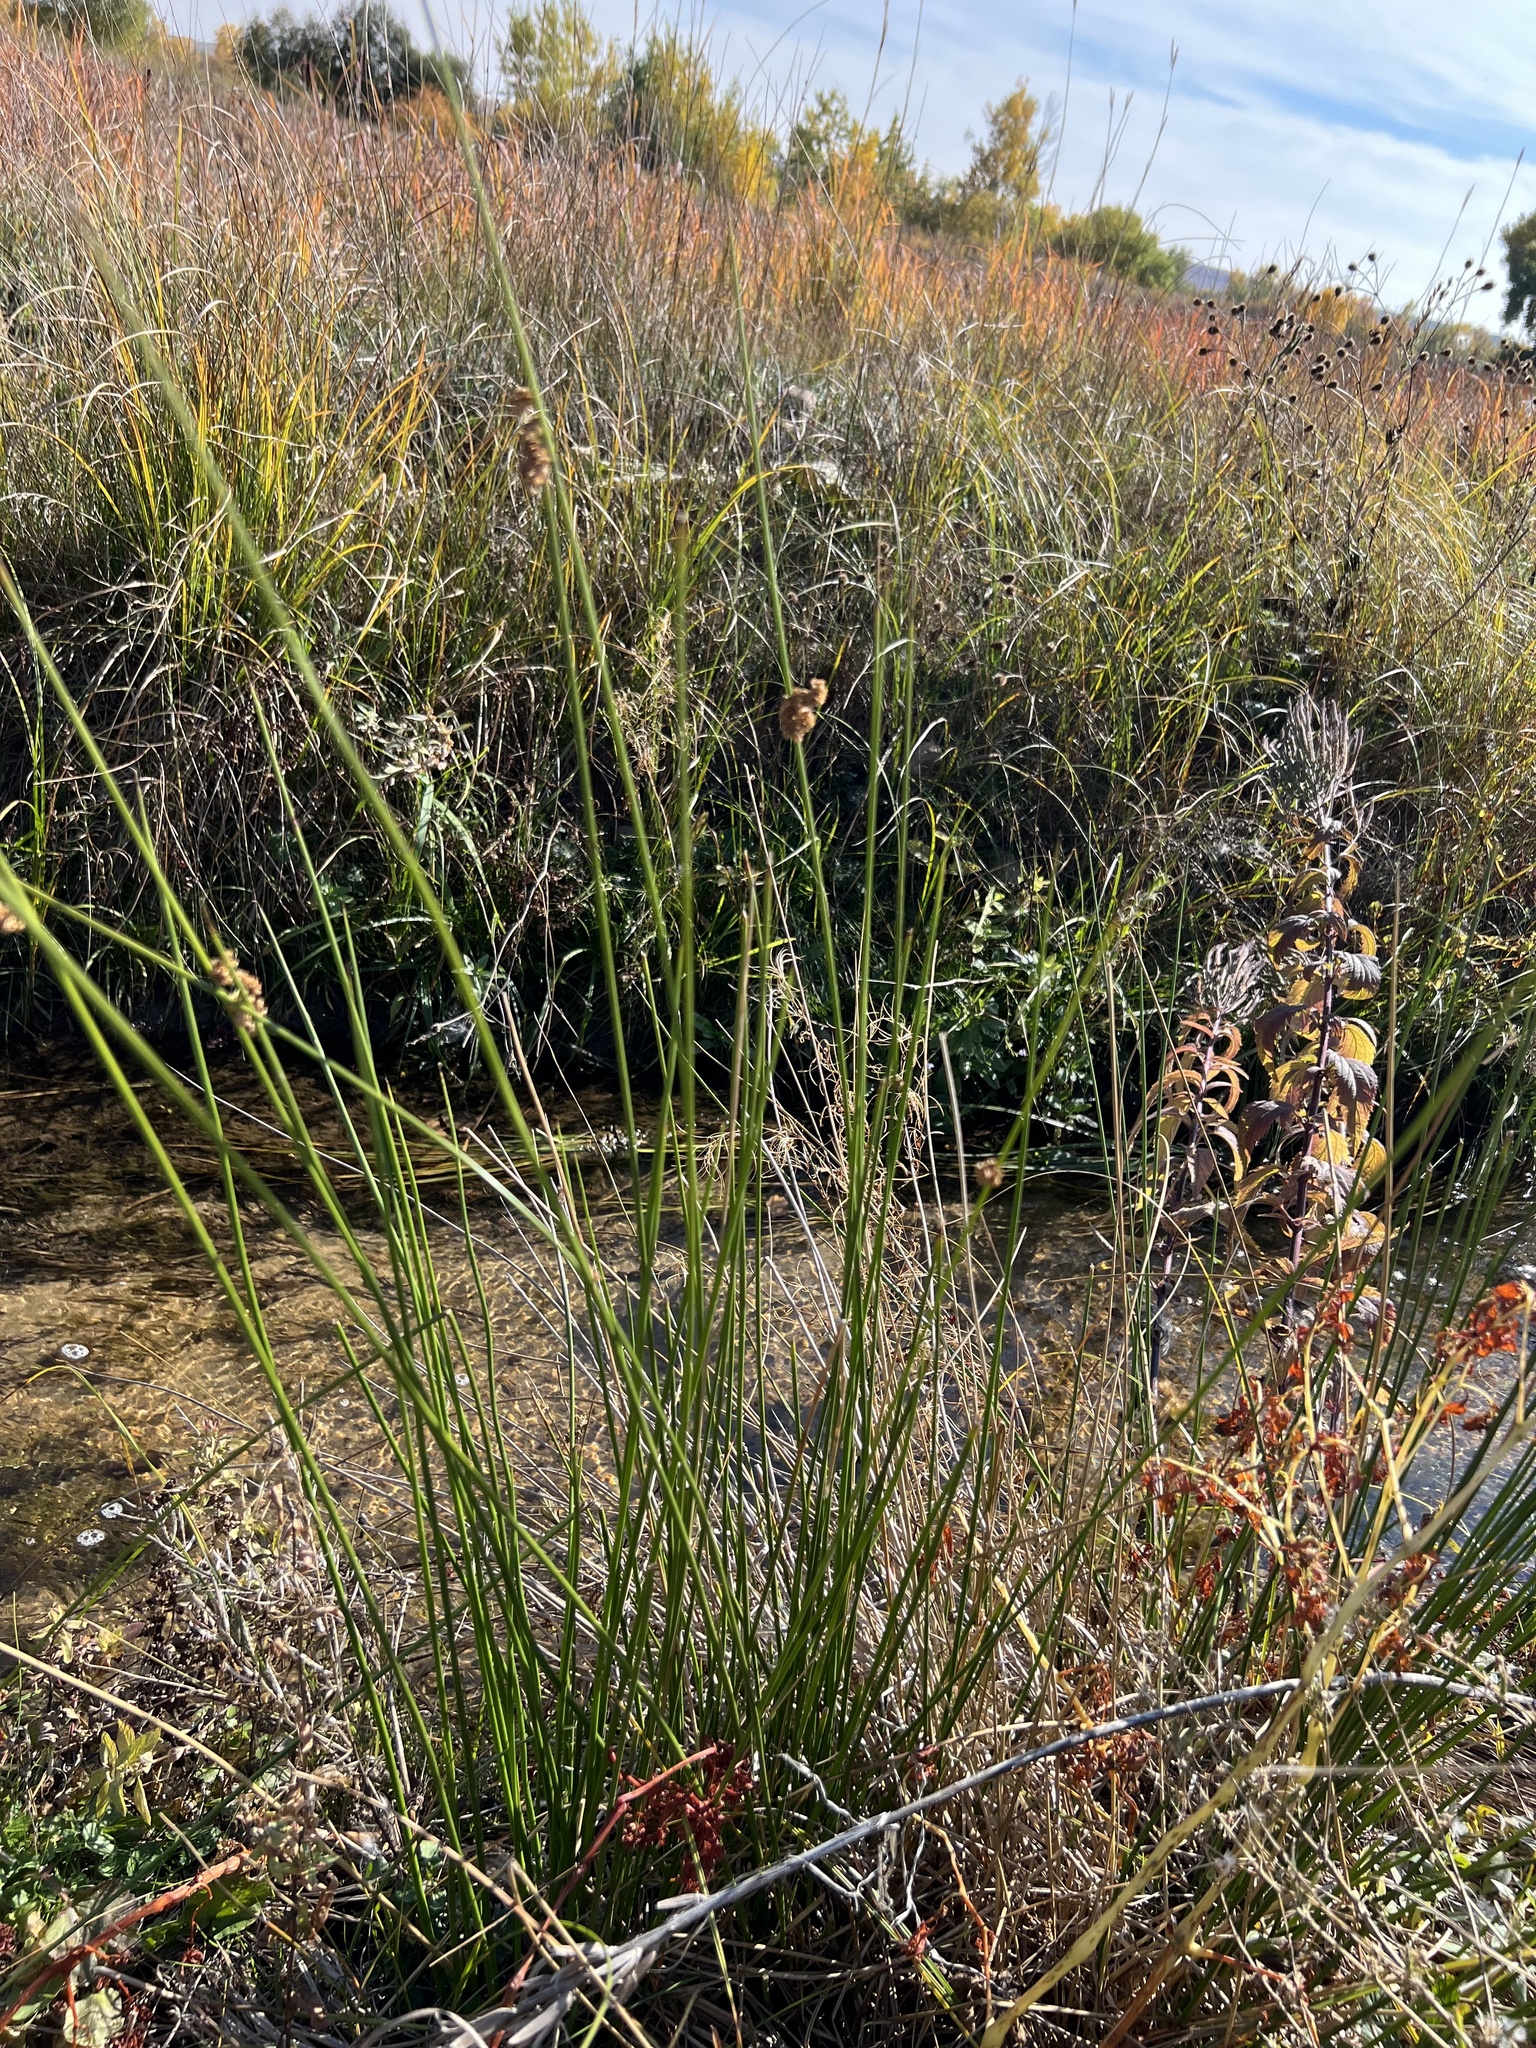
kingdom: Plantae
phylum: Tracheophyta
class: Liliopsida
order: Poales
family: Juncaceae
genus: Juncus
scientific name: Juncus effusus
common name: Soft rush
